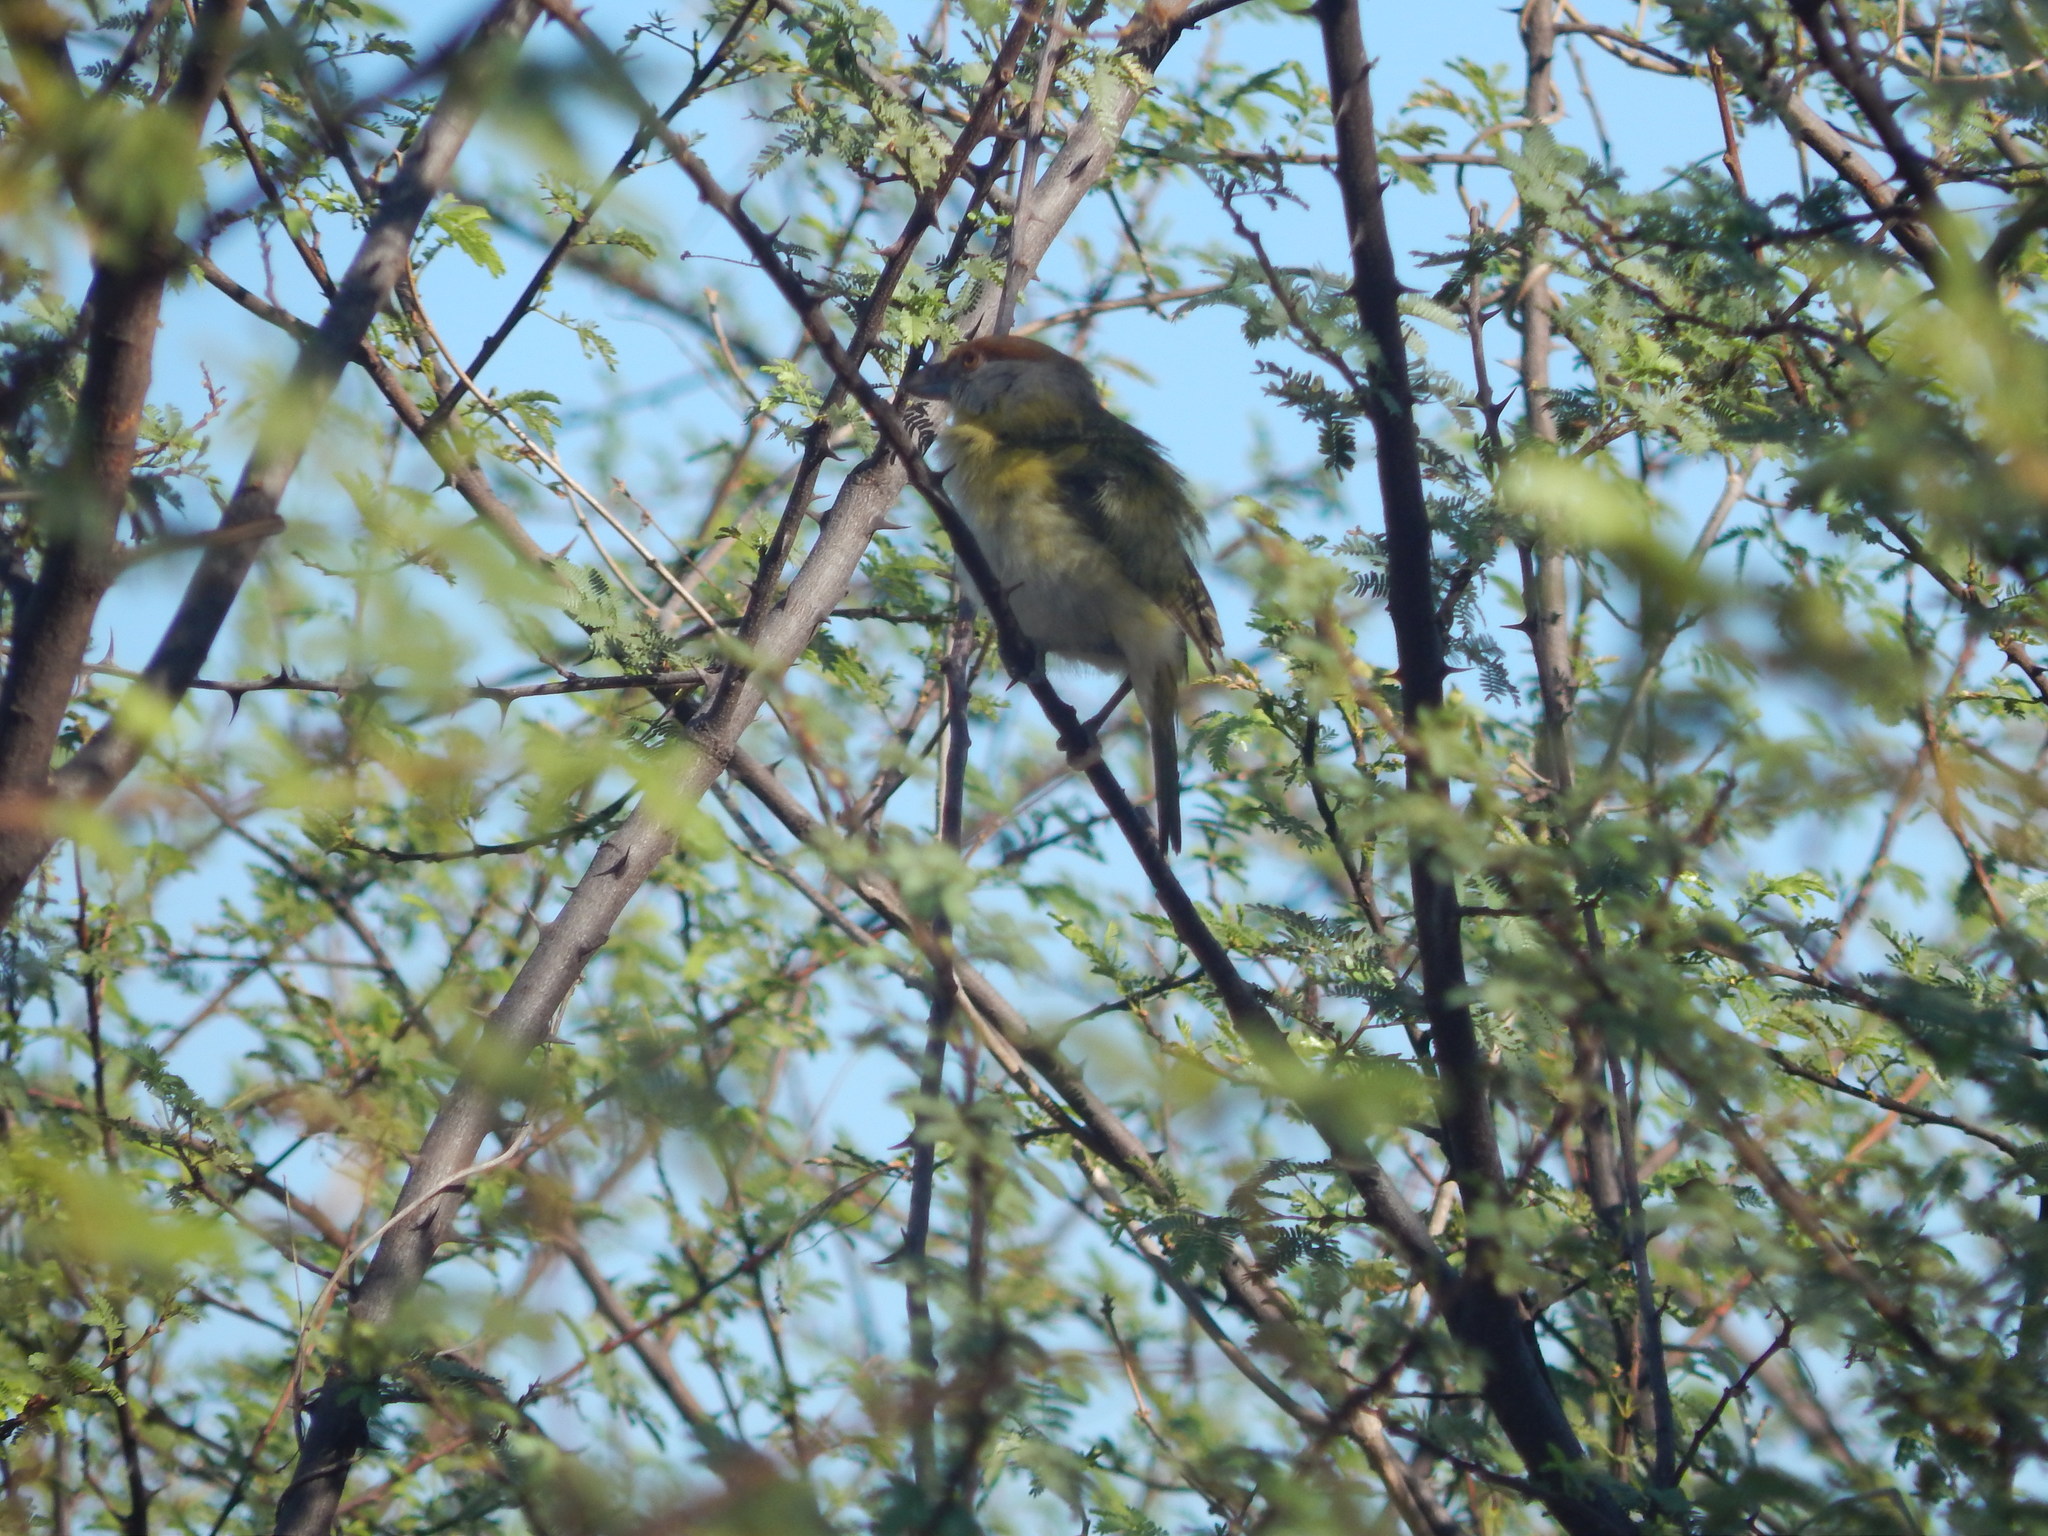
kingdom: Animalia
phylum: Chordata
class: Aves
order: Passeriformes
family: Vireonidae
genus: Cyclarhis
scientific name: Cyclarhis gujanensis
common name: Rufous-browed peppershrike
